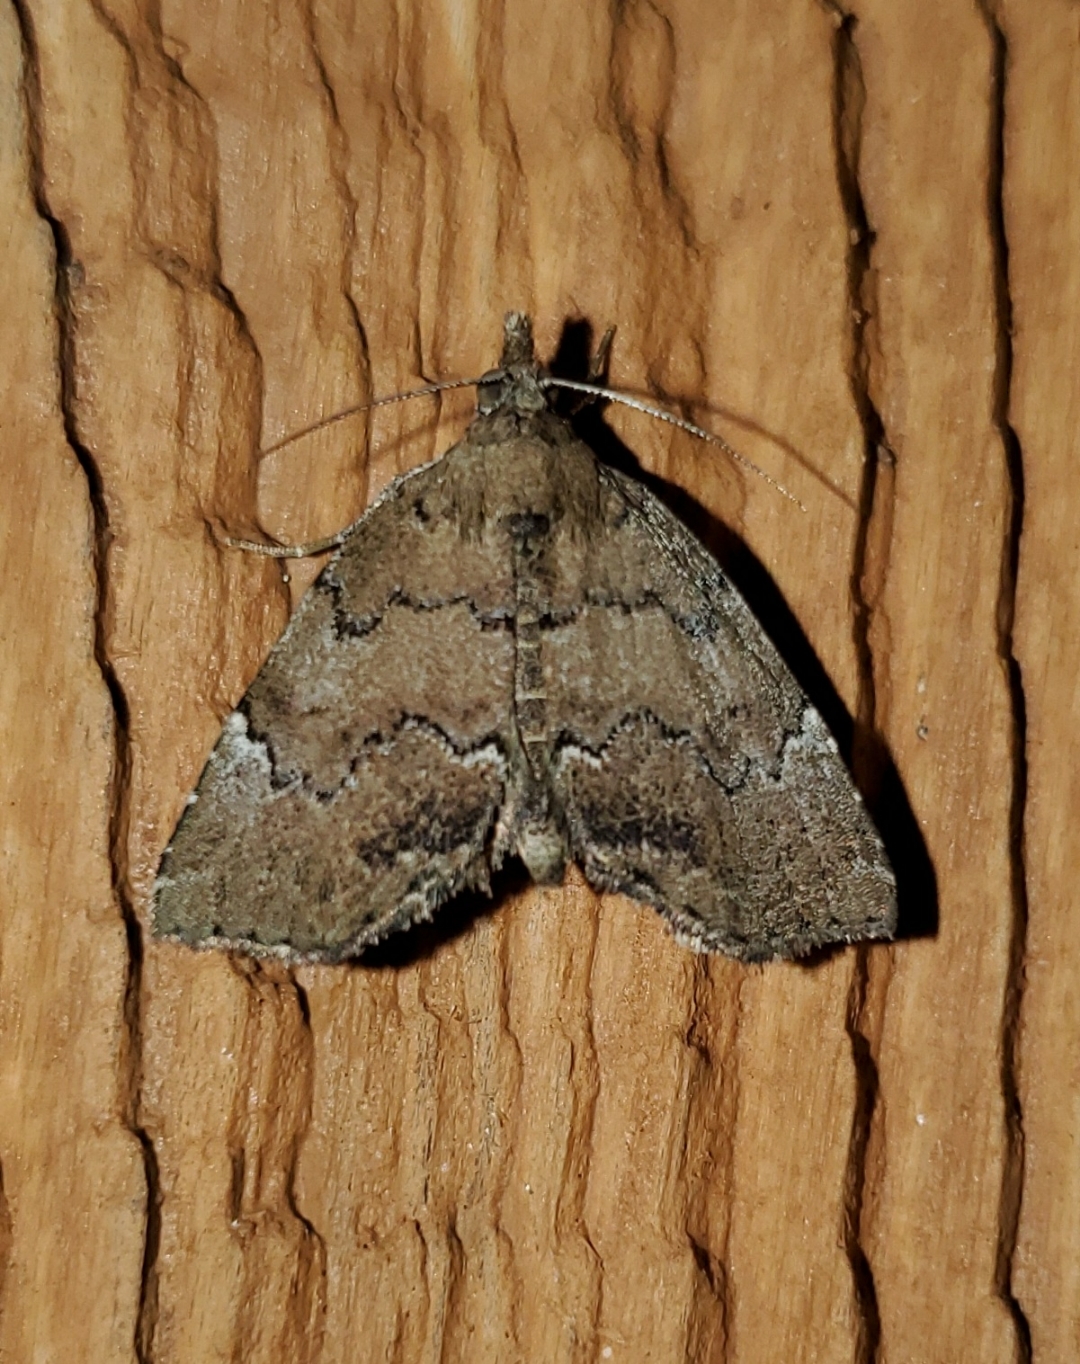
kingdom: Animalia
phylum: Arthropoda
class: Insecta
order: Lepidoptera
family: Erebidae
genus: Cutina
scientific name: Cutina aluticolor
